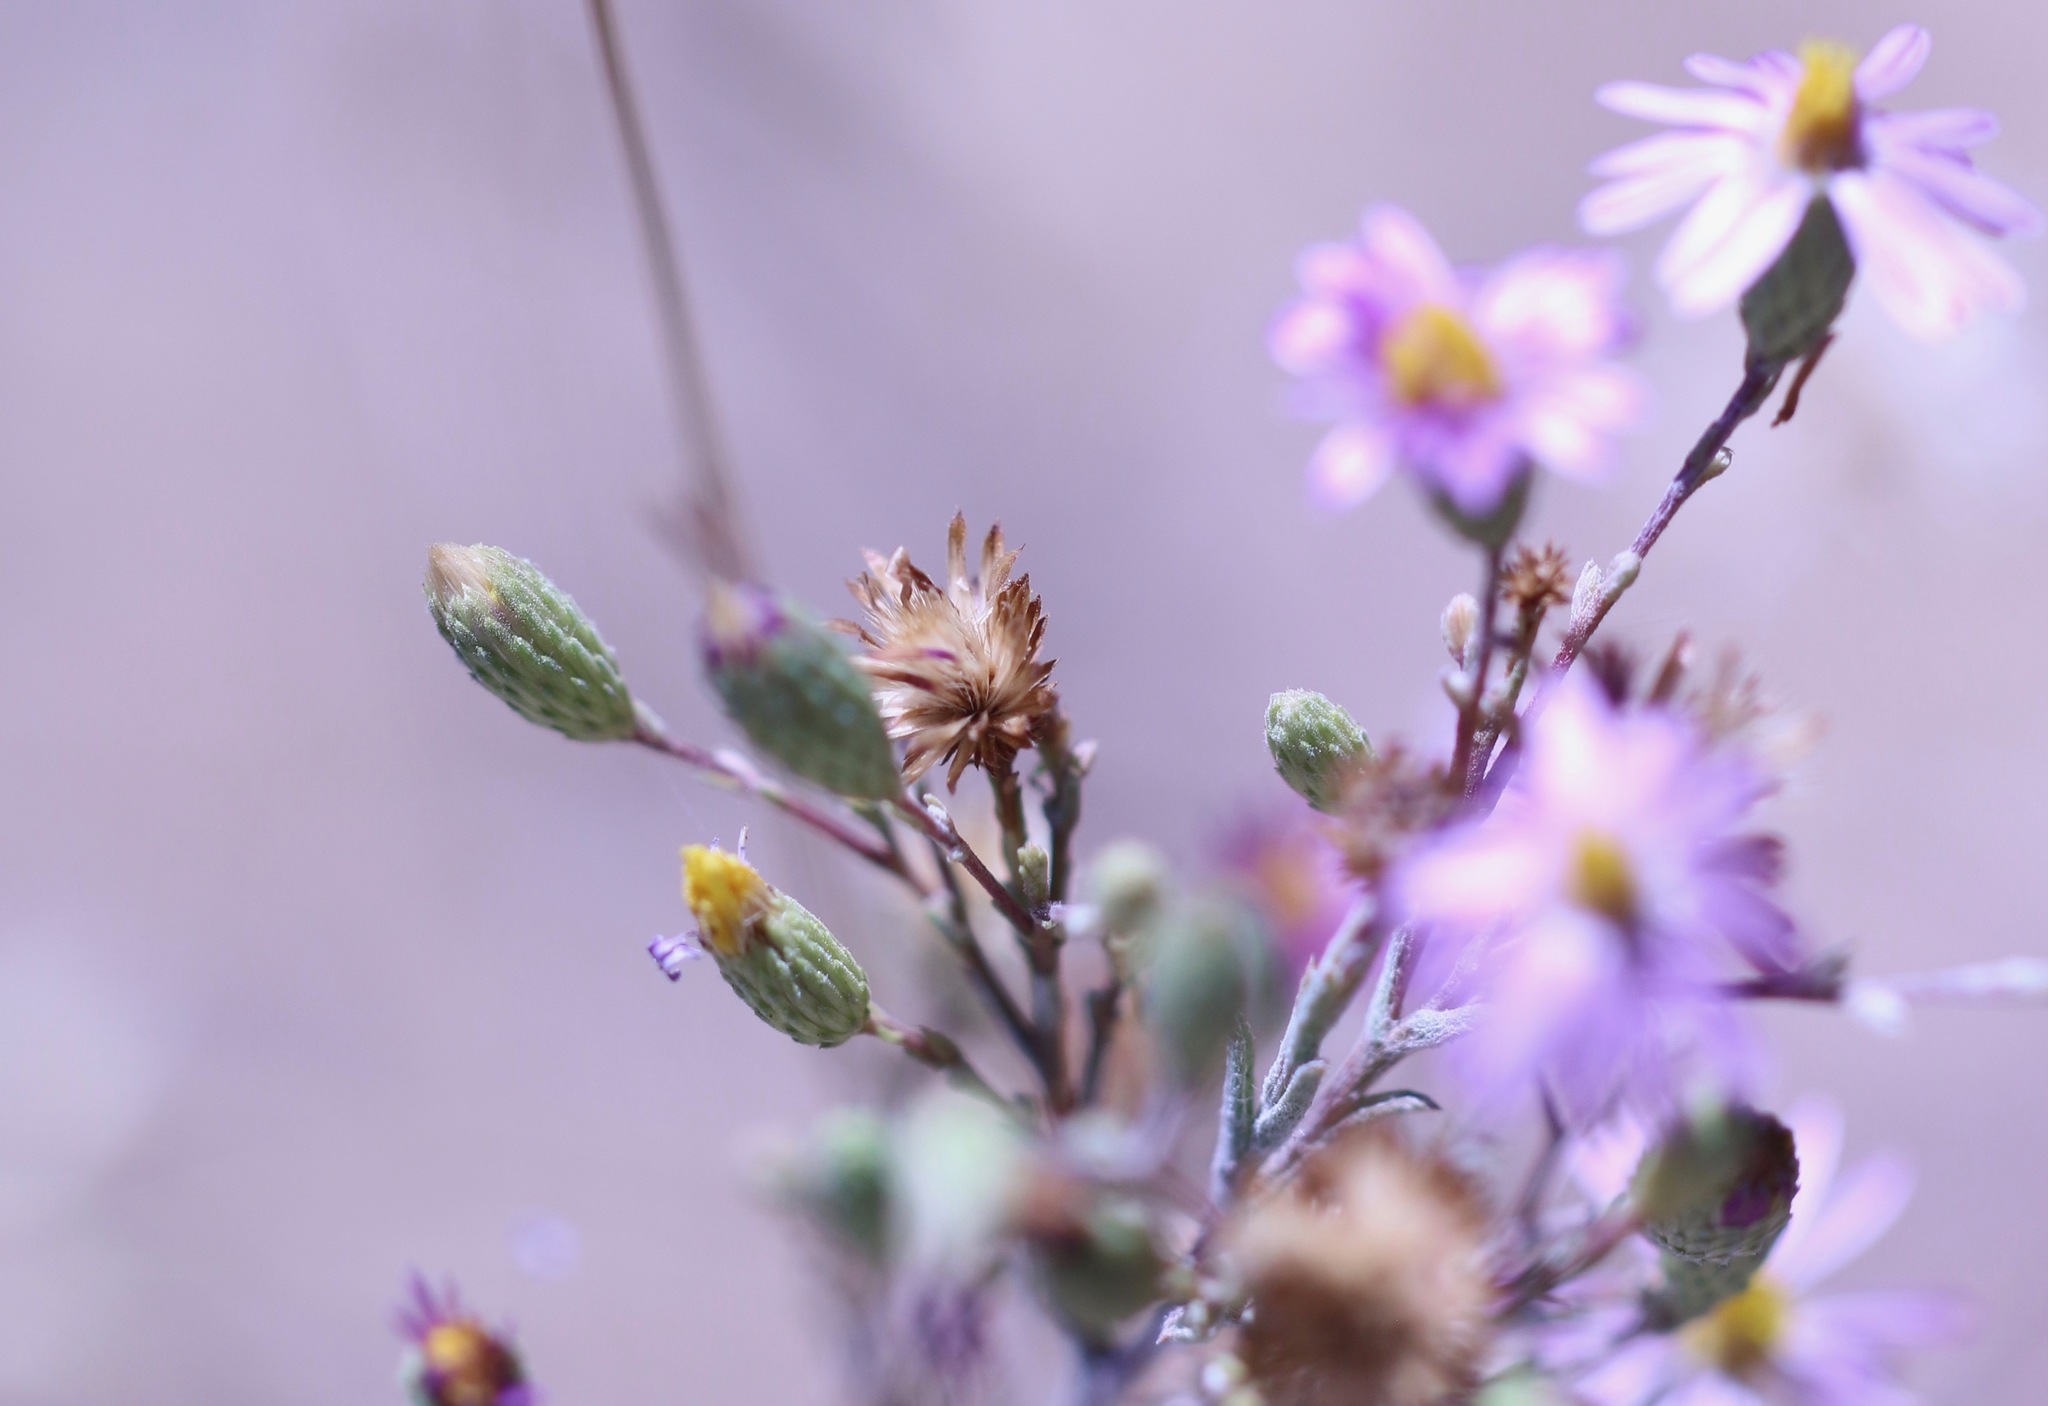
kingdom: Plantae
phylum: Tracheophyta
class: Magnoliopsida
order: Asterales
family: Asteraceae
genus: Corethrogyne
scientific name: Corethrogyne filaginifolia
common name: Sand-aster
